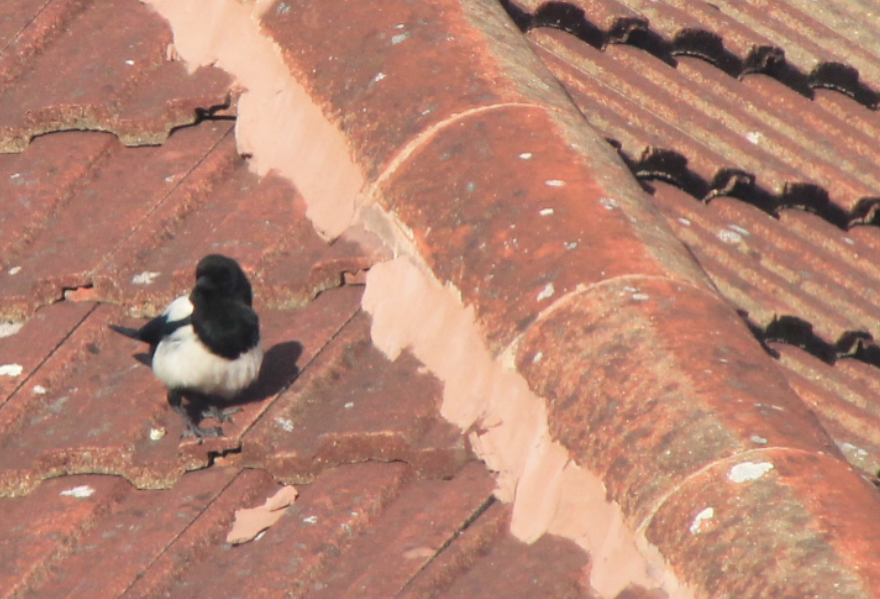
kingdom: Animalia
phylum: Chordata
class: Aves
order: Passeriformes
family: Corvidae
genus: Pica
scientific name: Pica pica
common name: Eurasian magpie
